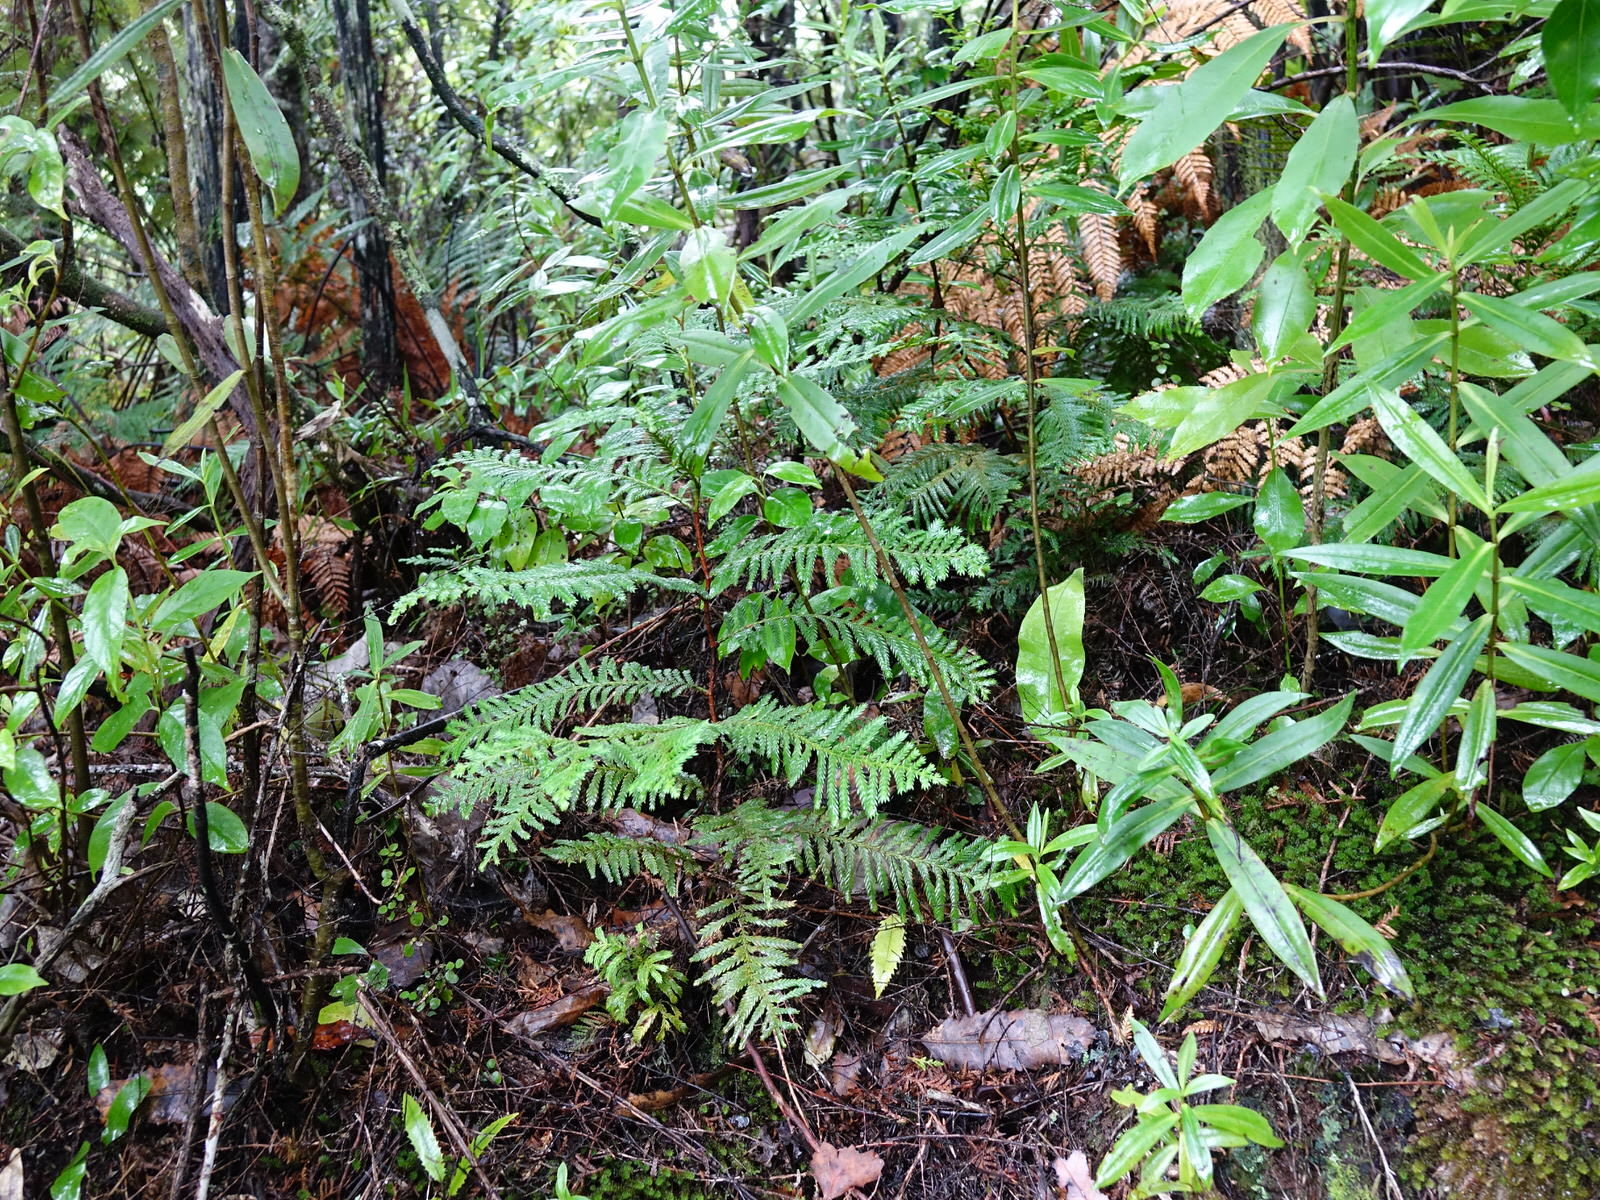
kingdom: Plantae
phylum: Tracheophyta
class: Pinopsida
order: Pinales
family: Cupressaceae
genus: Libocedrus
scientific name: Libocedrus plumosa
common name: New zealand cedar
